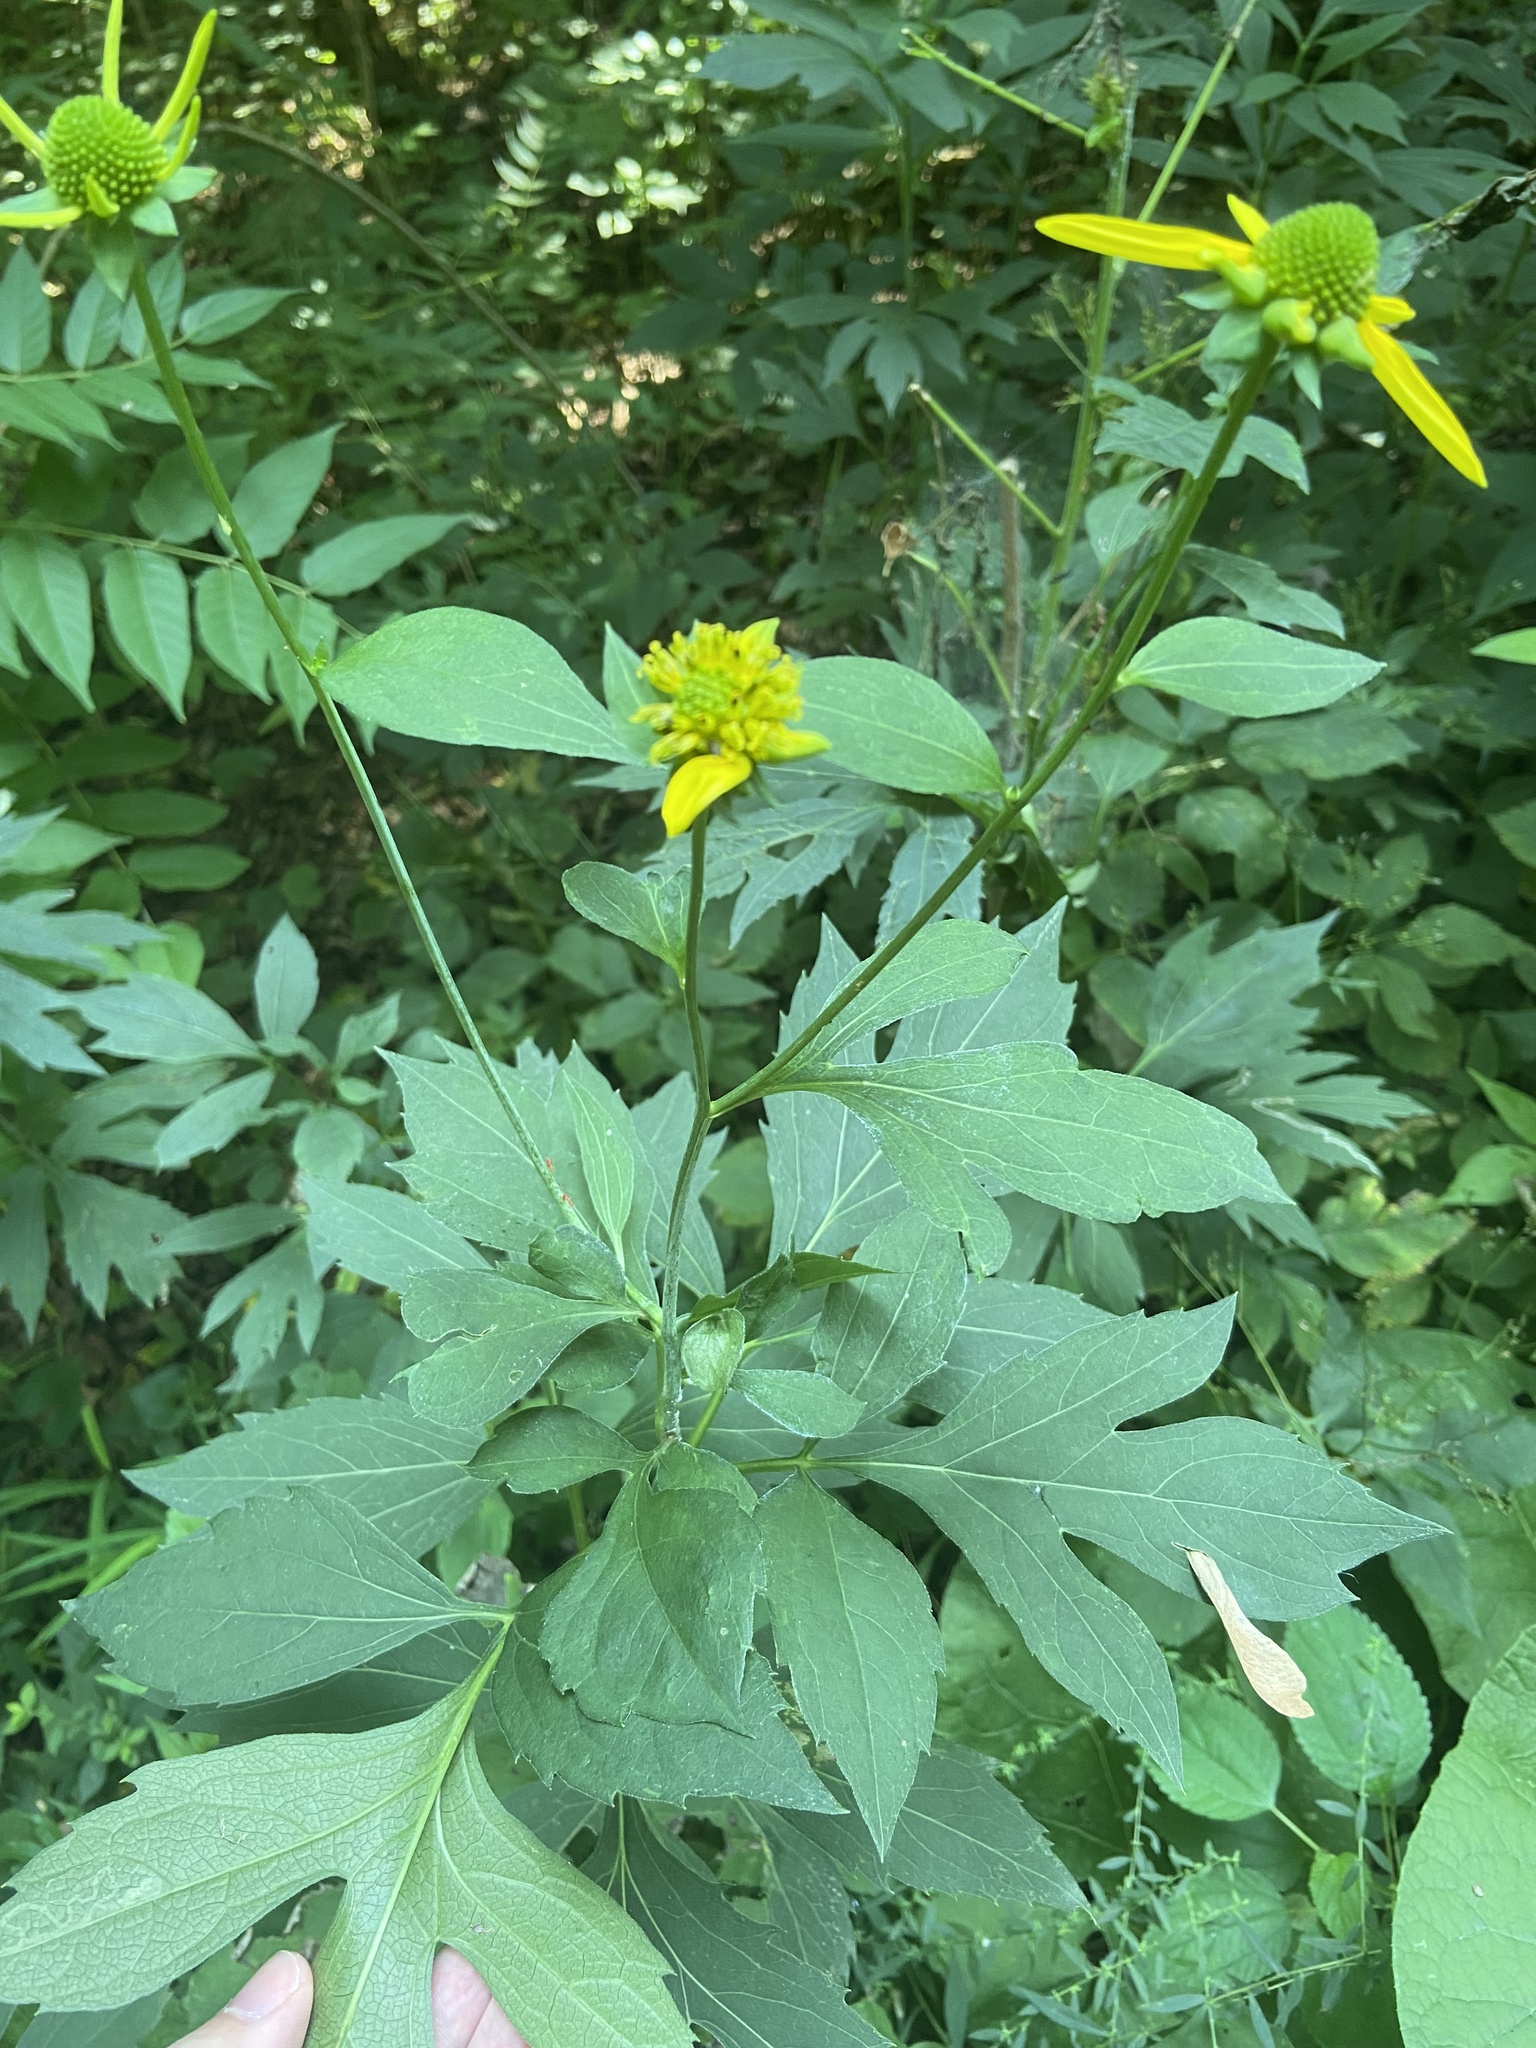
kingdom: Plantae
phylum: Tracheophyta
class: Magnoliopsida
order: Asterales
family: Asteraceae
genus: Rudbeckia
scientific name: Rudbeckia laciniata
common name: Coneflower
